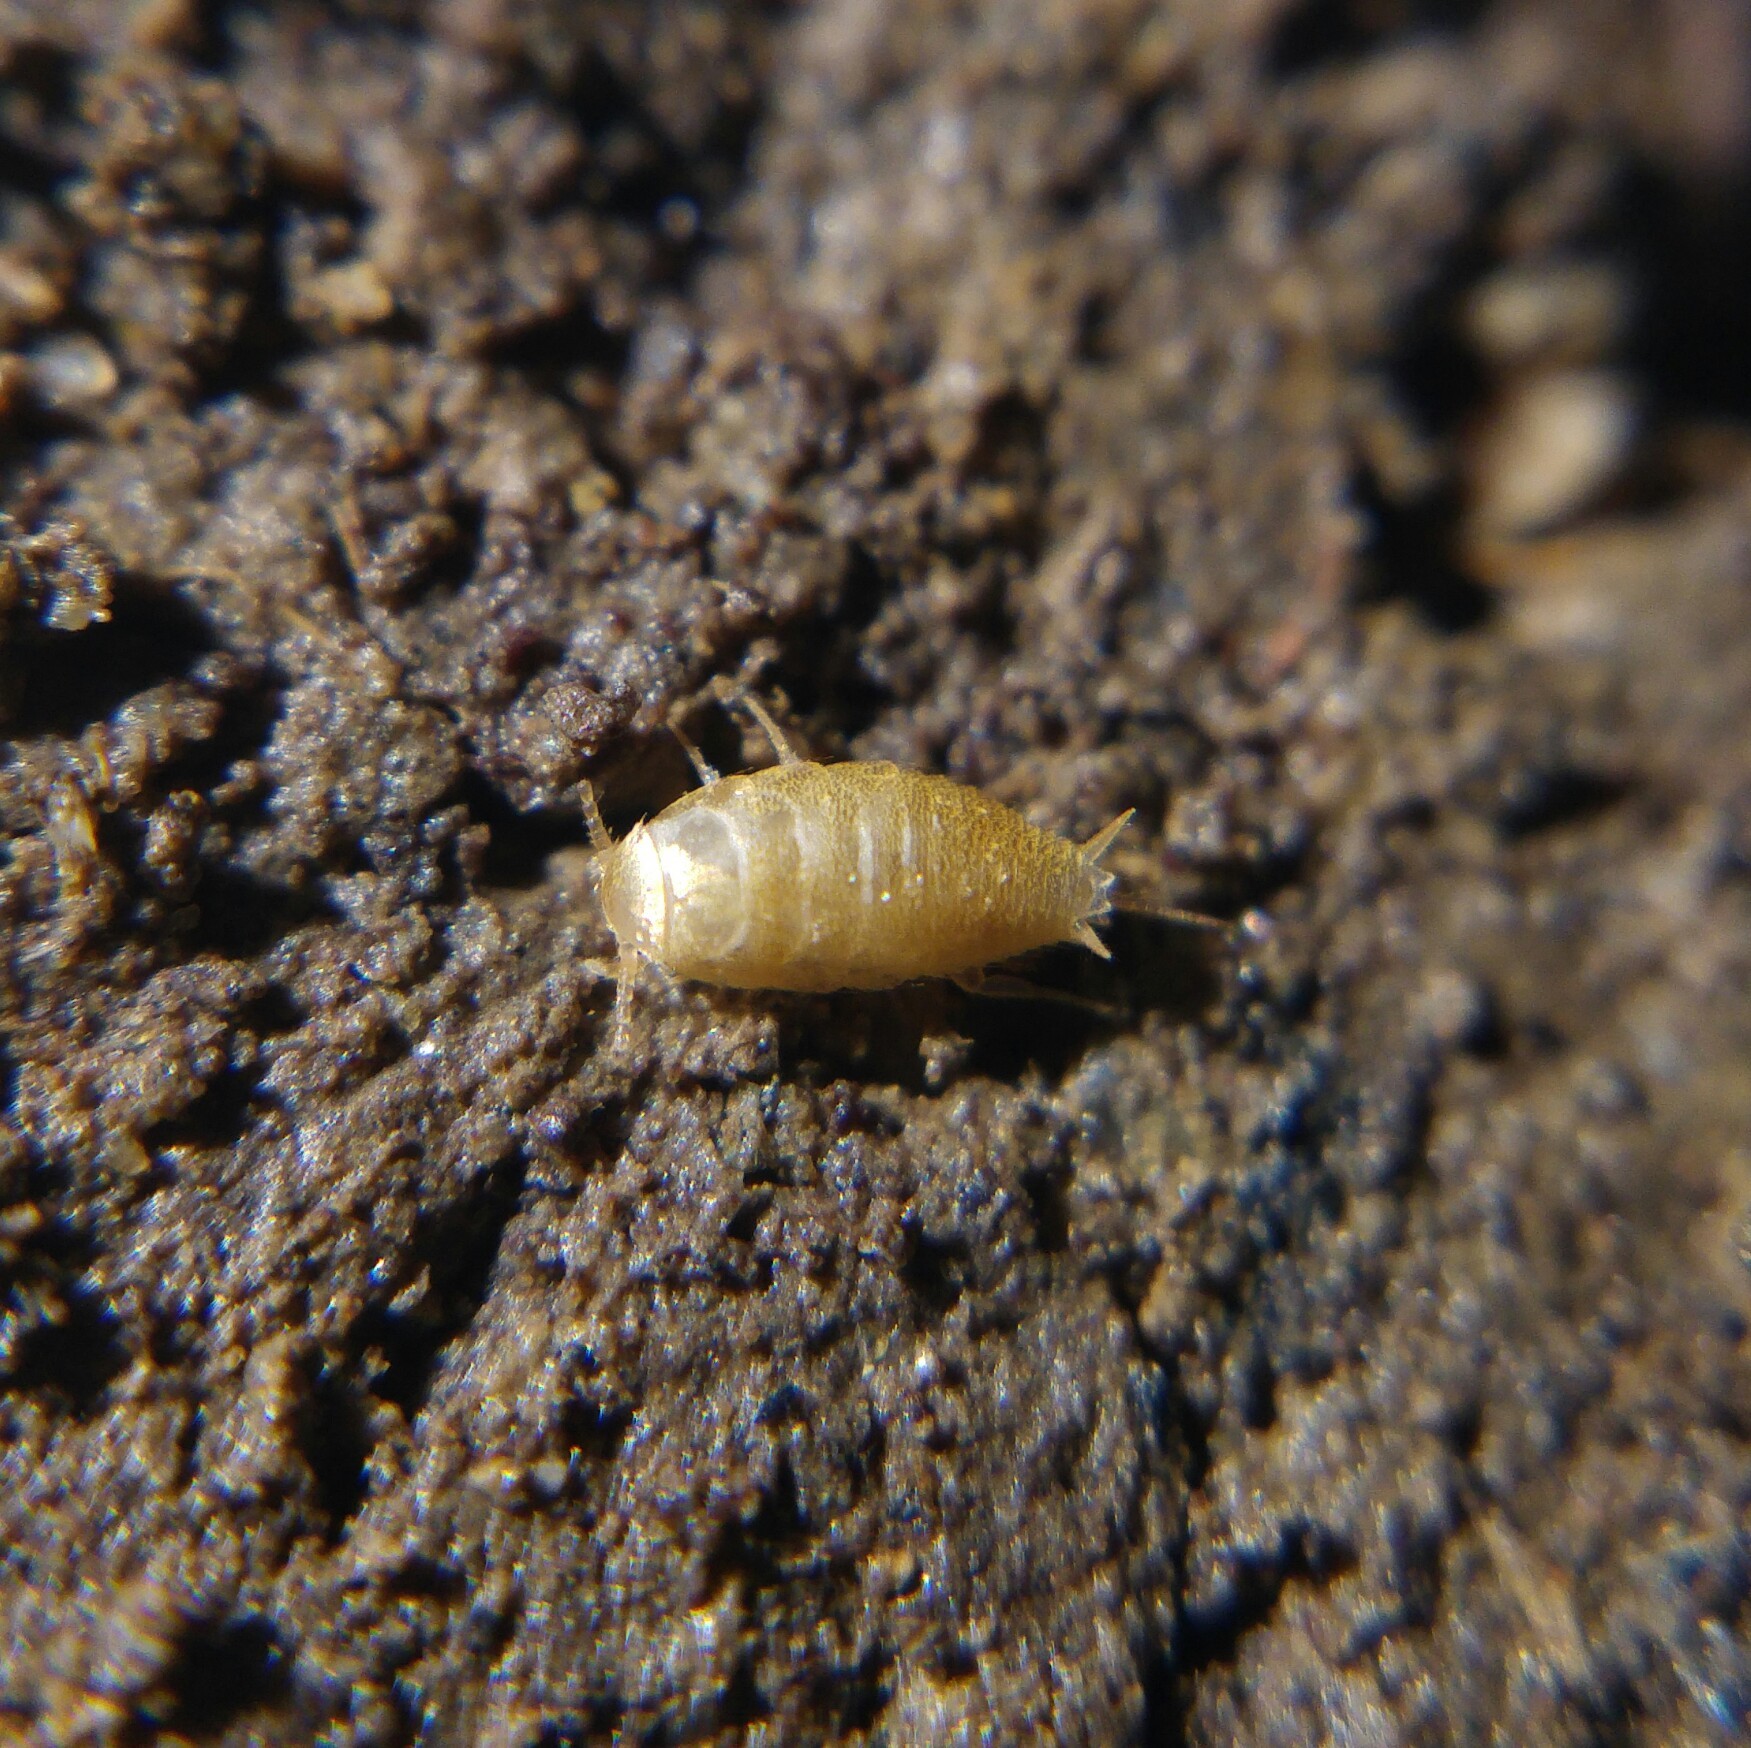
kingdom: Animalia
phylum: Arthropoda
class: Insecta
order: Zygentoma
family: Nicoletiidae
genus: Proatelurina
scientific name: Proatelurina pseudolepisma
